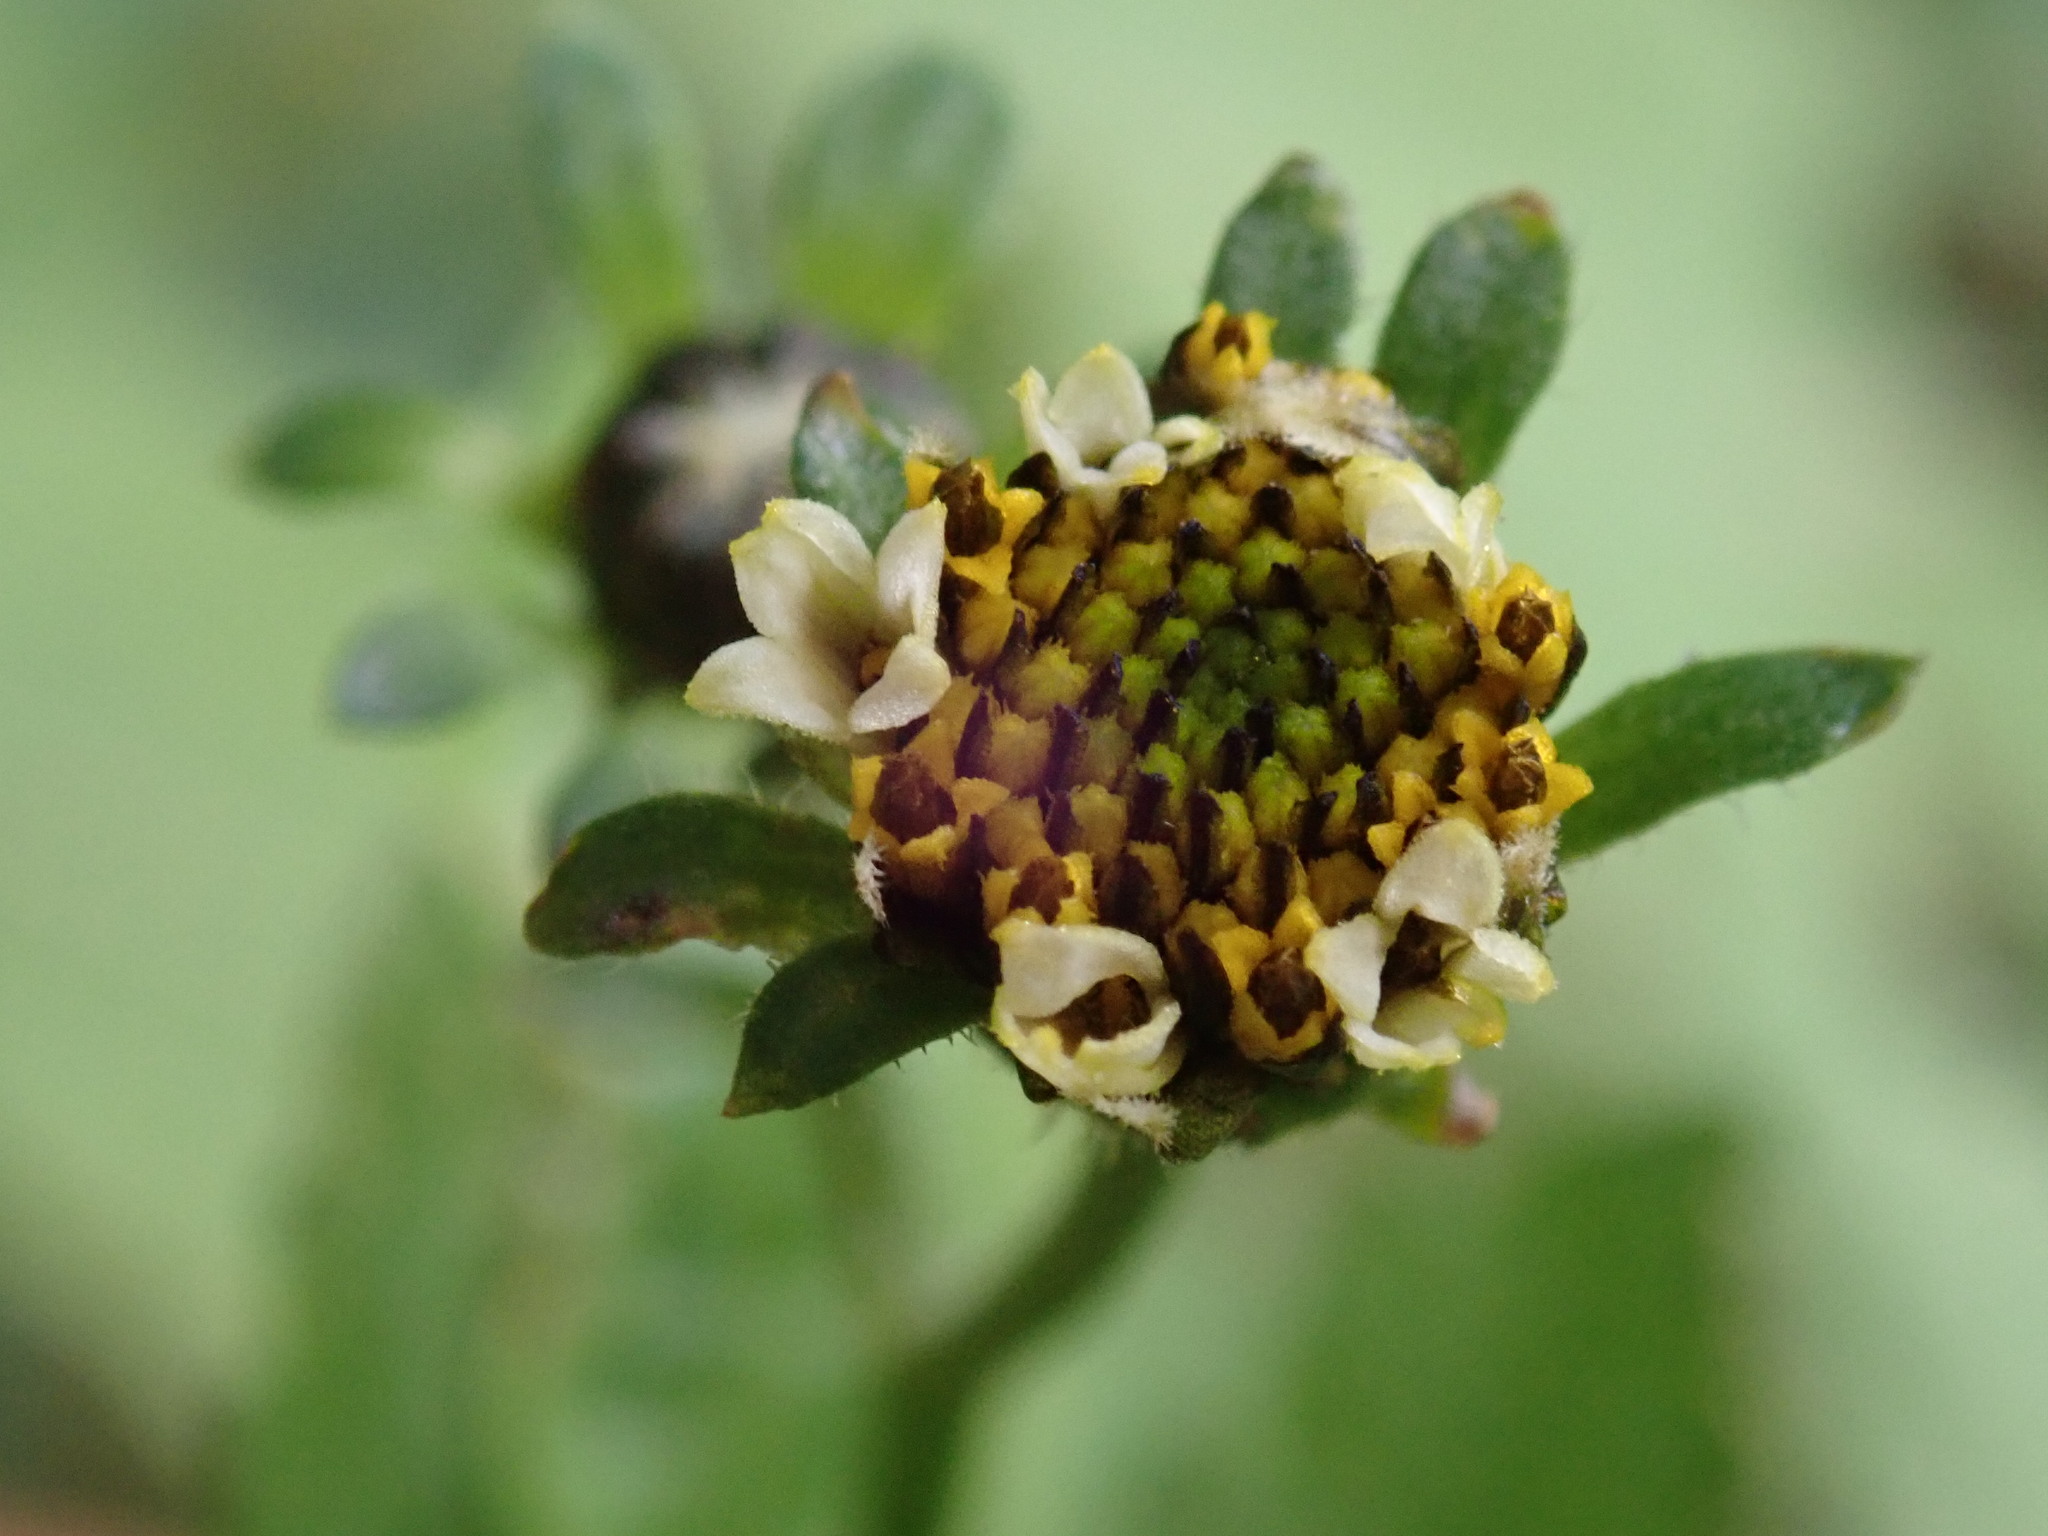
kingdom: Plantae
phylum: Tracheophyta
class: Magnoliopsida
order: Asterales
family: Asteraceae
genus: Bidens
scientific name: Bidens pilosa
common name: Black-jack
